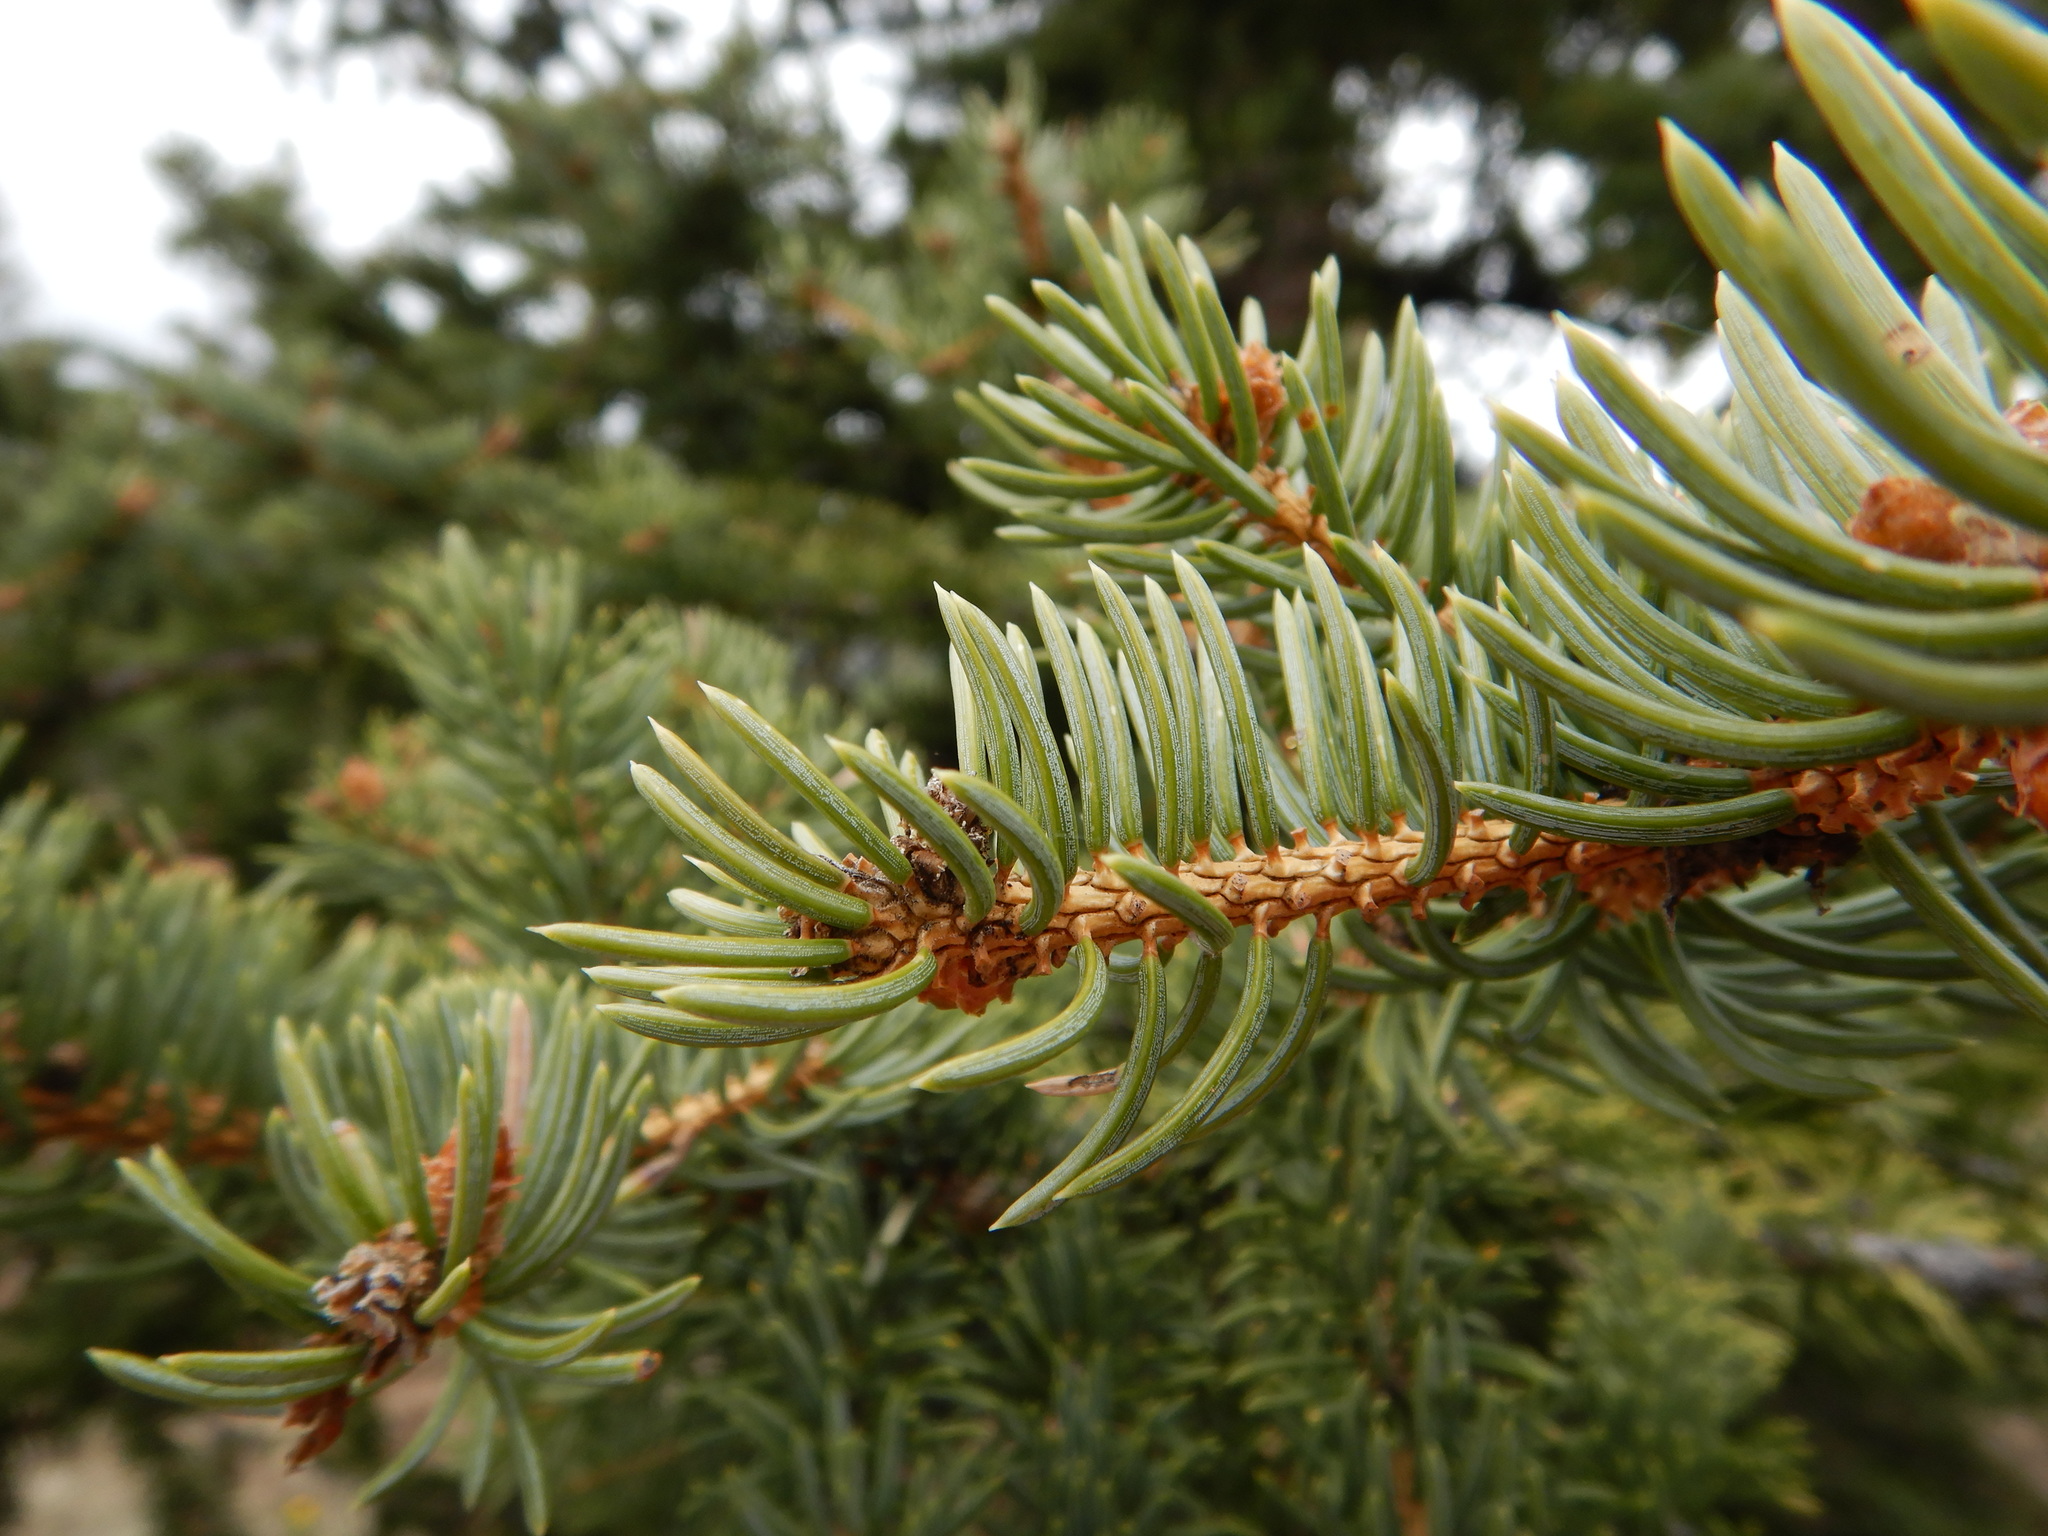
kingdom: Plantae
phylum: Tracheophyta
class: Pinopsida
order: Pinales
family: Pinaceae
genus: Picea
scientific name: Picea pungens
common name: Colorado spruce
